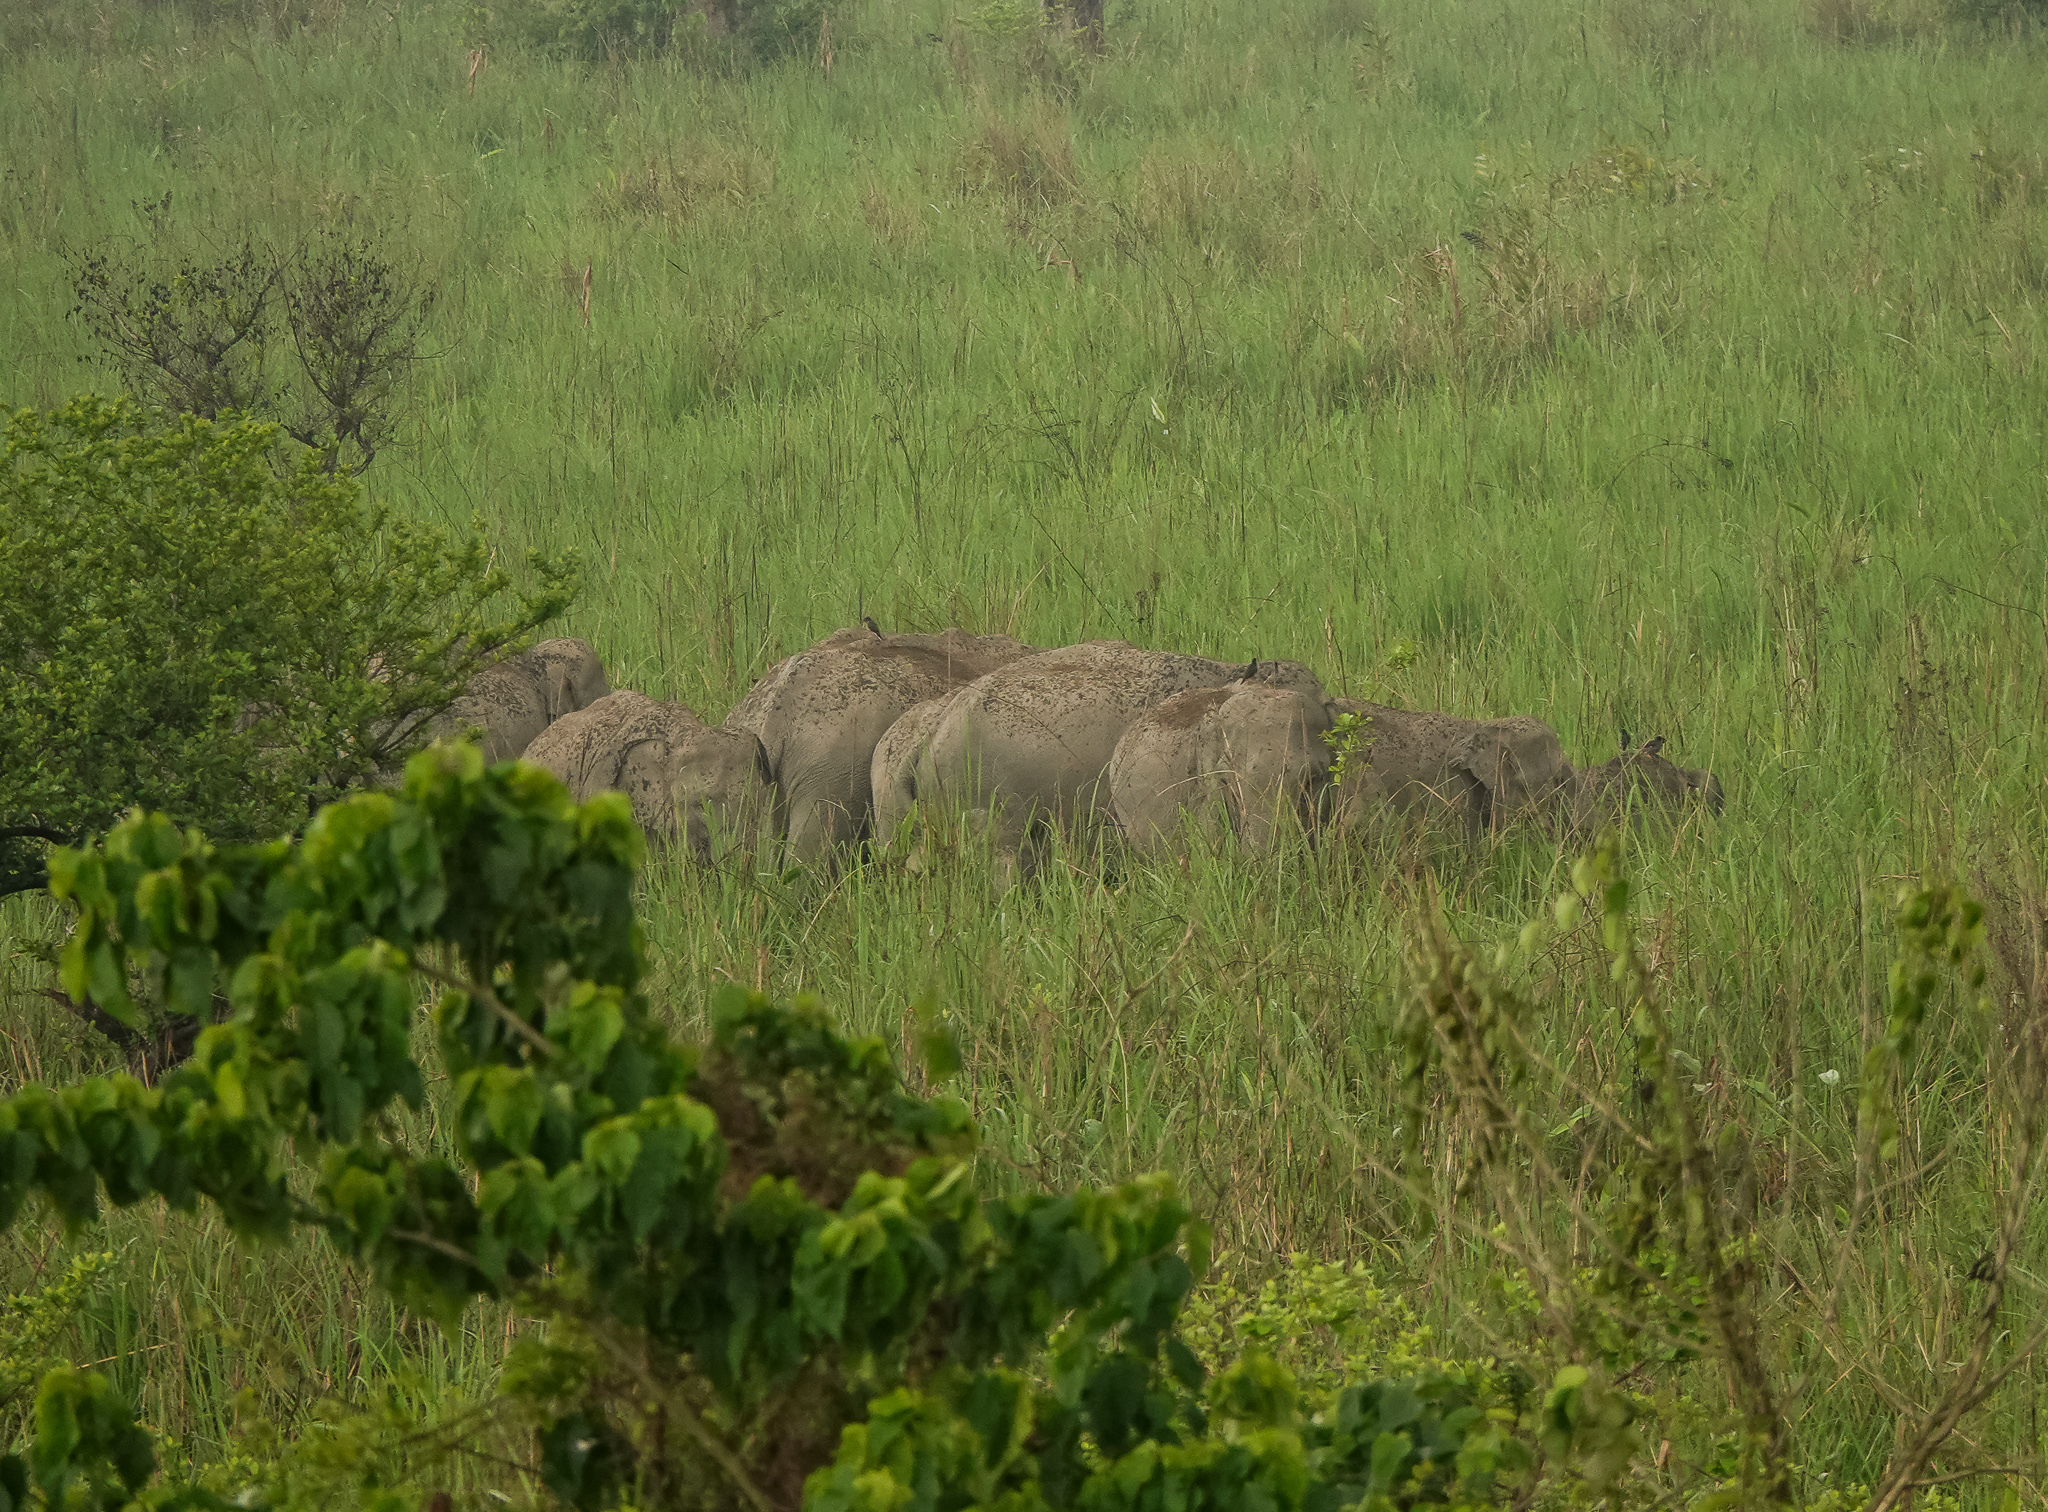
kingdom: Animalia
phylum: Chordata
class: Mammalia
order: Proboscidea
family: Elephantidae
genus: Elephas
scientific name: Elephas maximus
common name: Asian elephant
